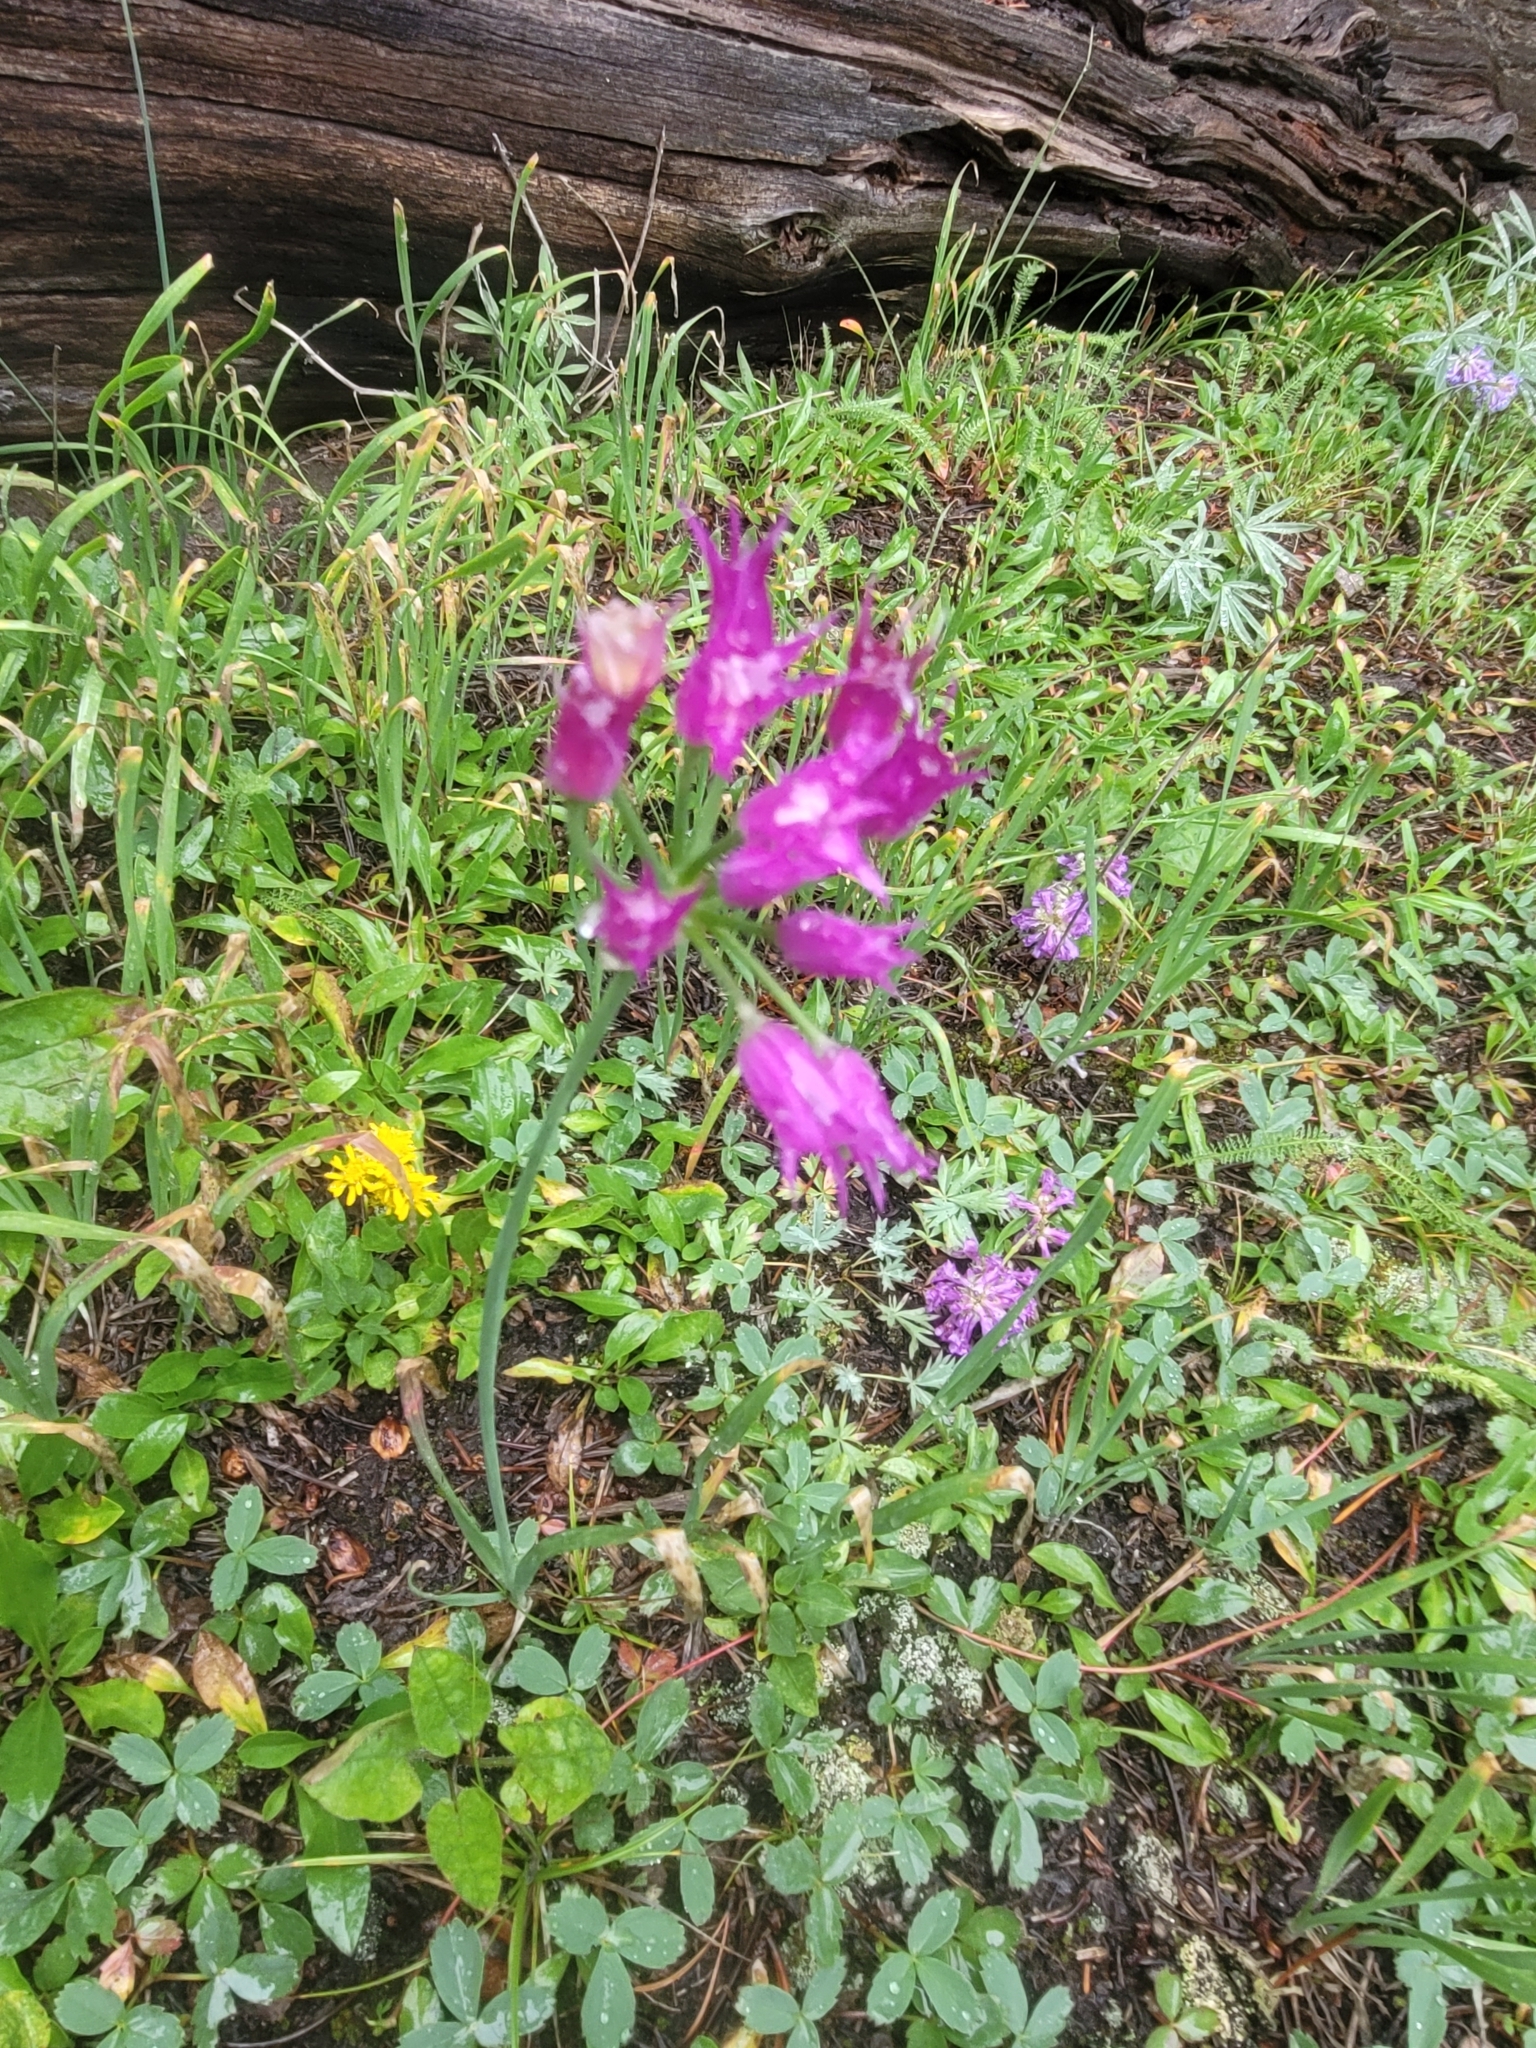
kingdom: Plantae
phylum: Tracheophyta
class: Liliopsida
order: Asparagales
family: Amaryllidaceae
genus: Allium
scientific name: Allium brevistylum
